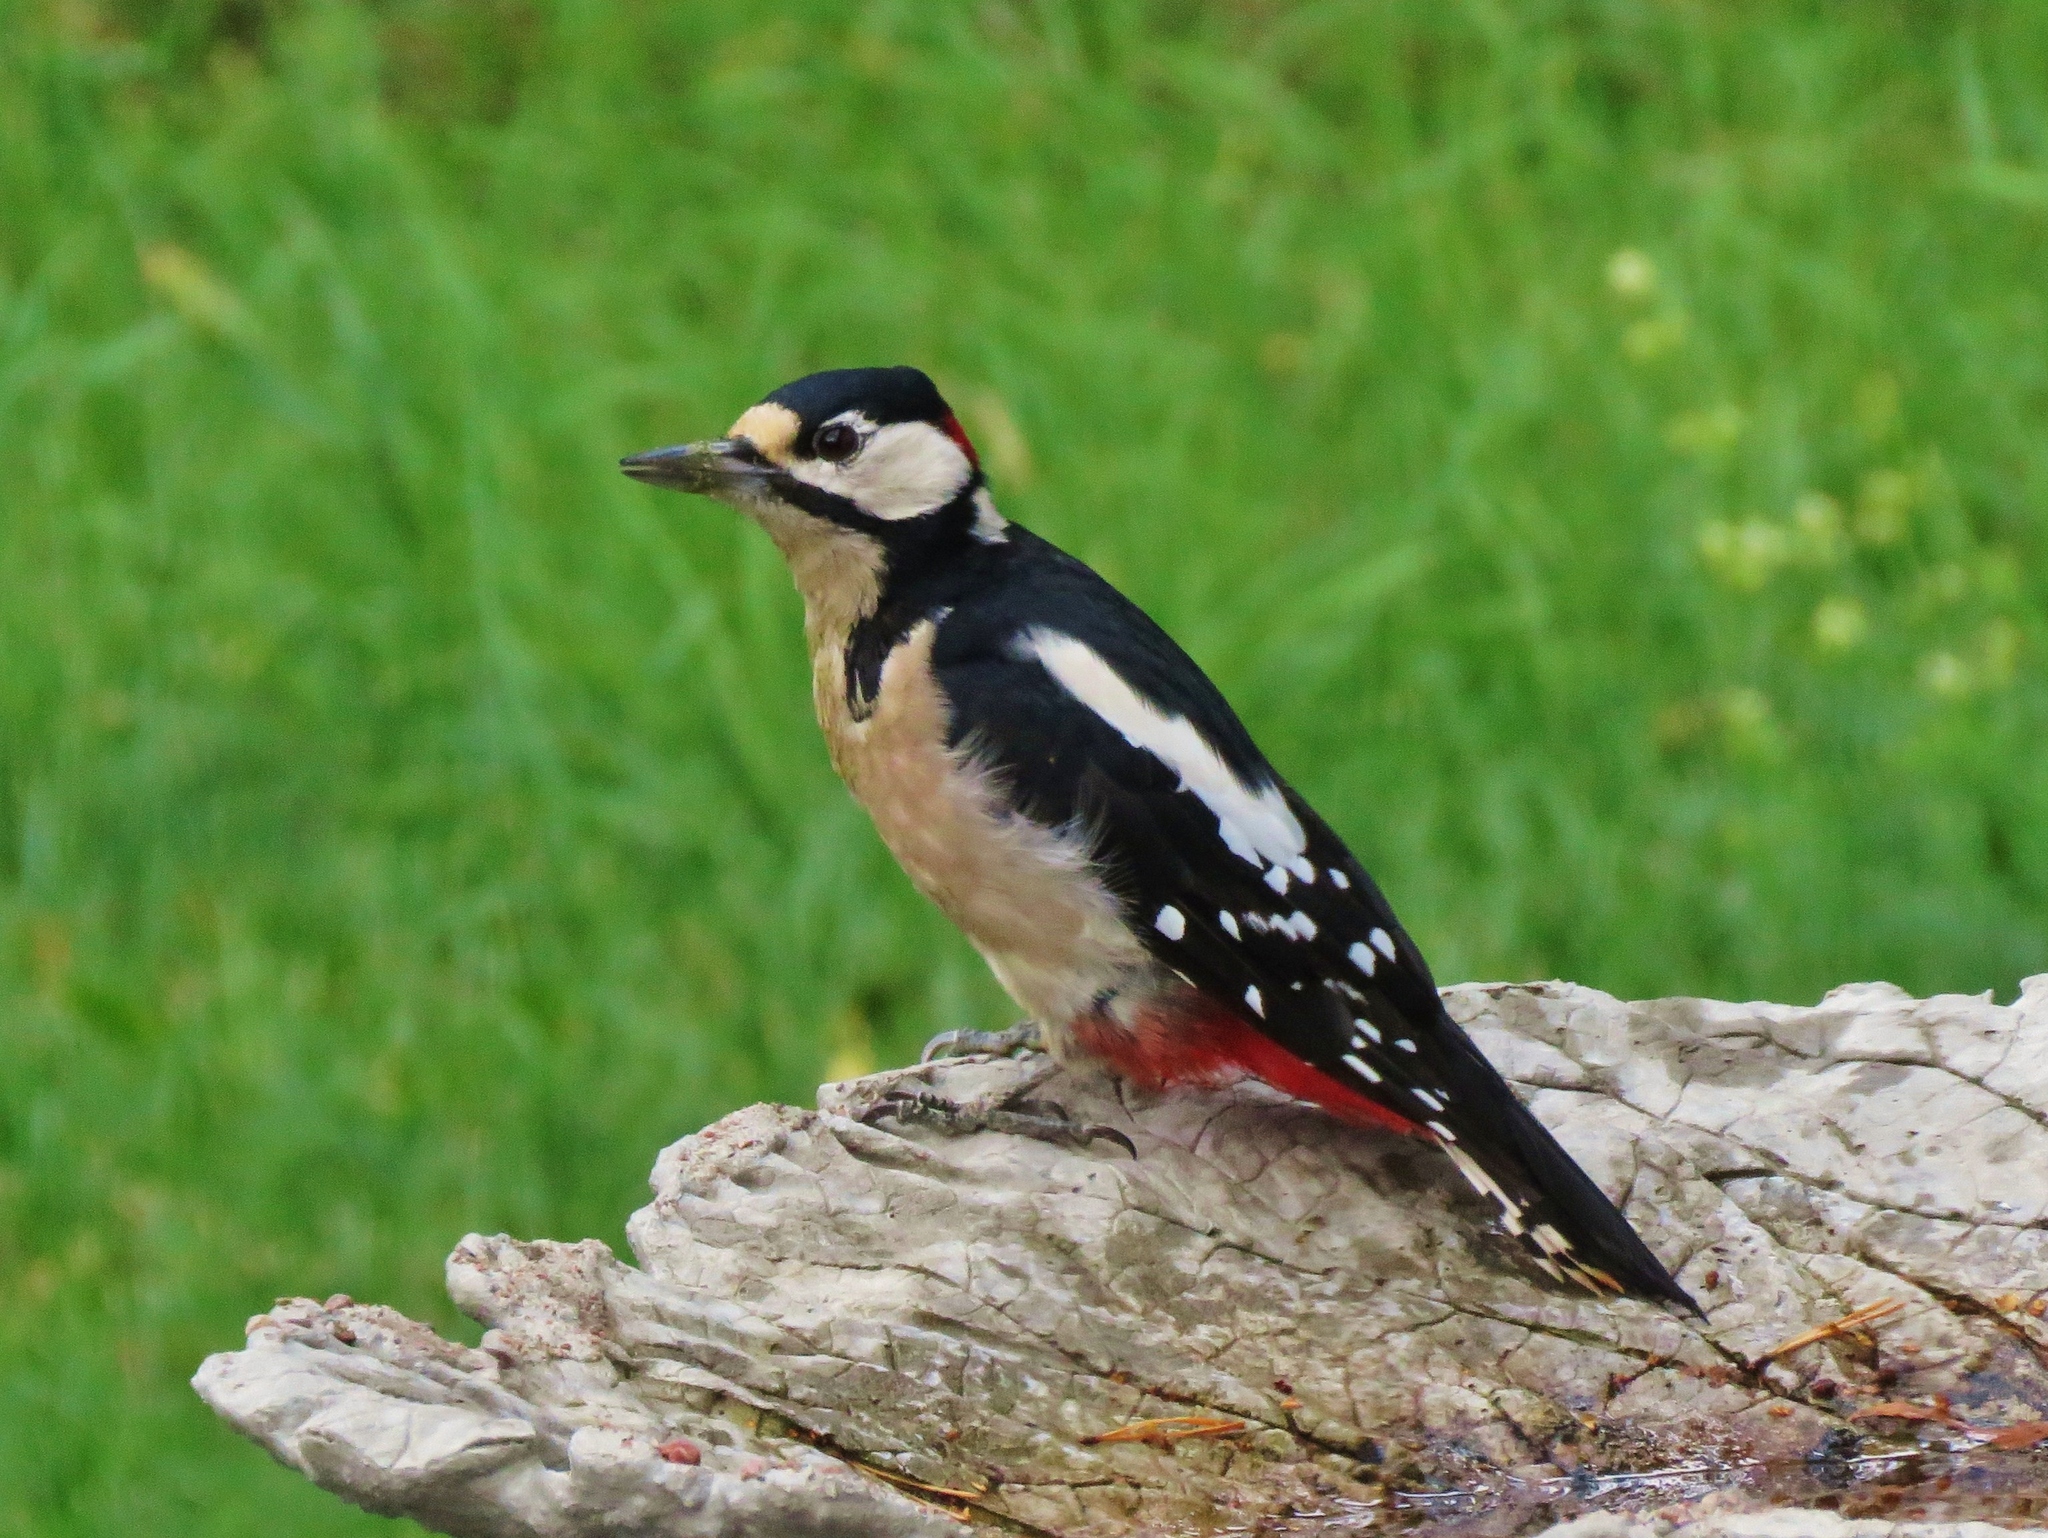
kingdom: Animalia
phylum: Chordata
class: Aves
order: Piciformes
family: Picidae
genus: Dendrocopos
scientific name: Dendrocopos major
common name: Great spotted woodpecker
